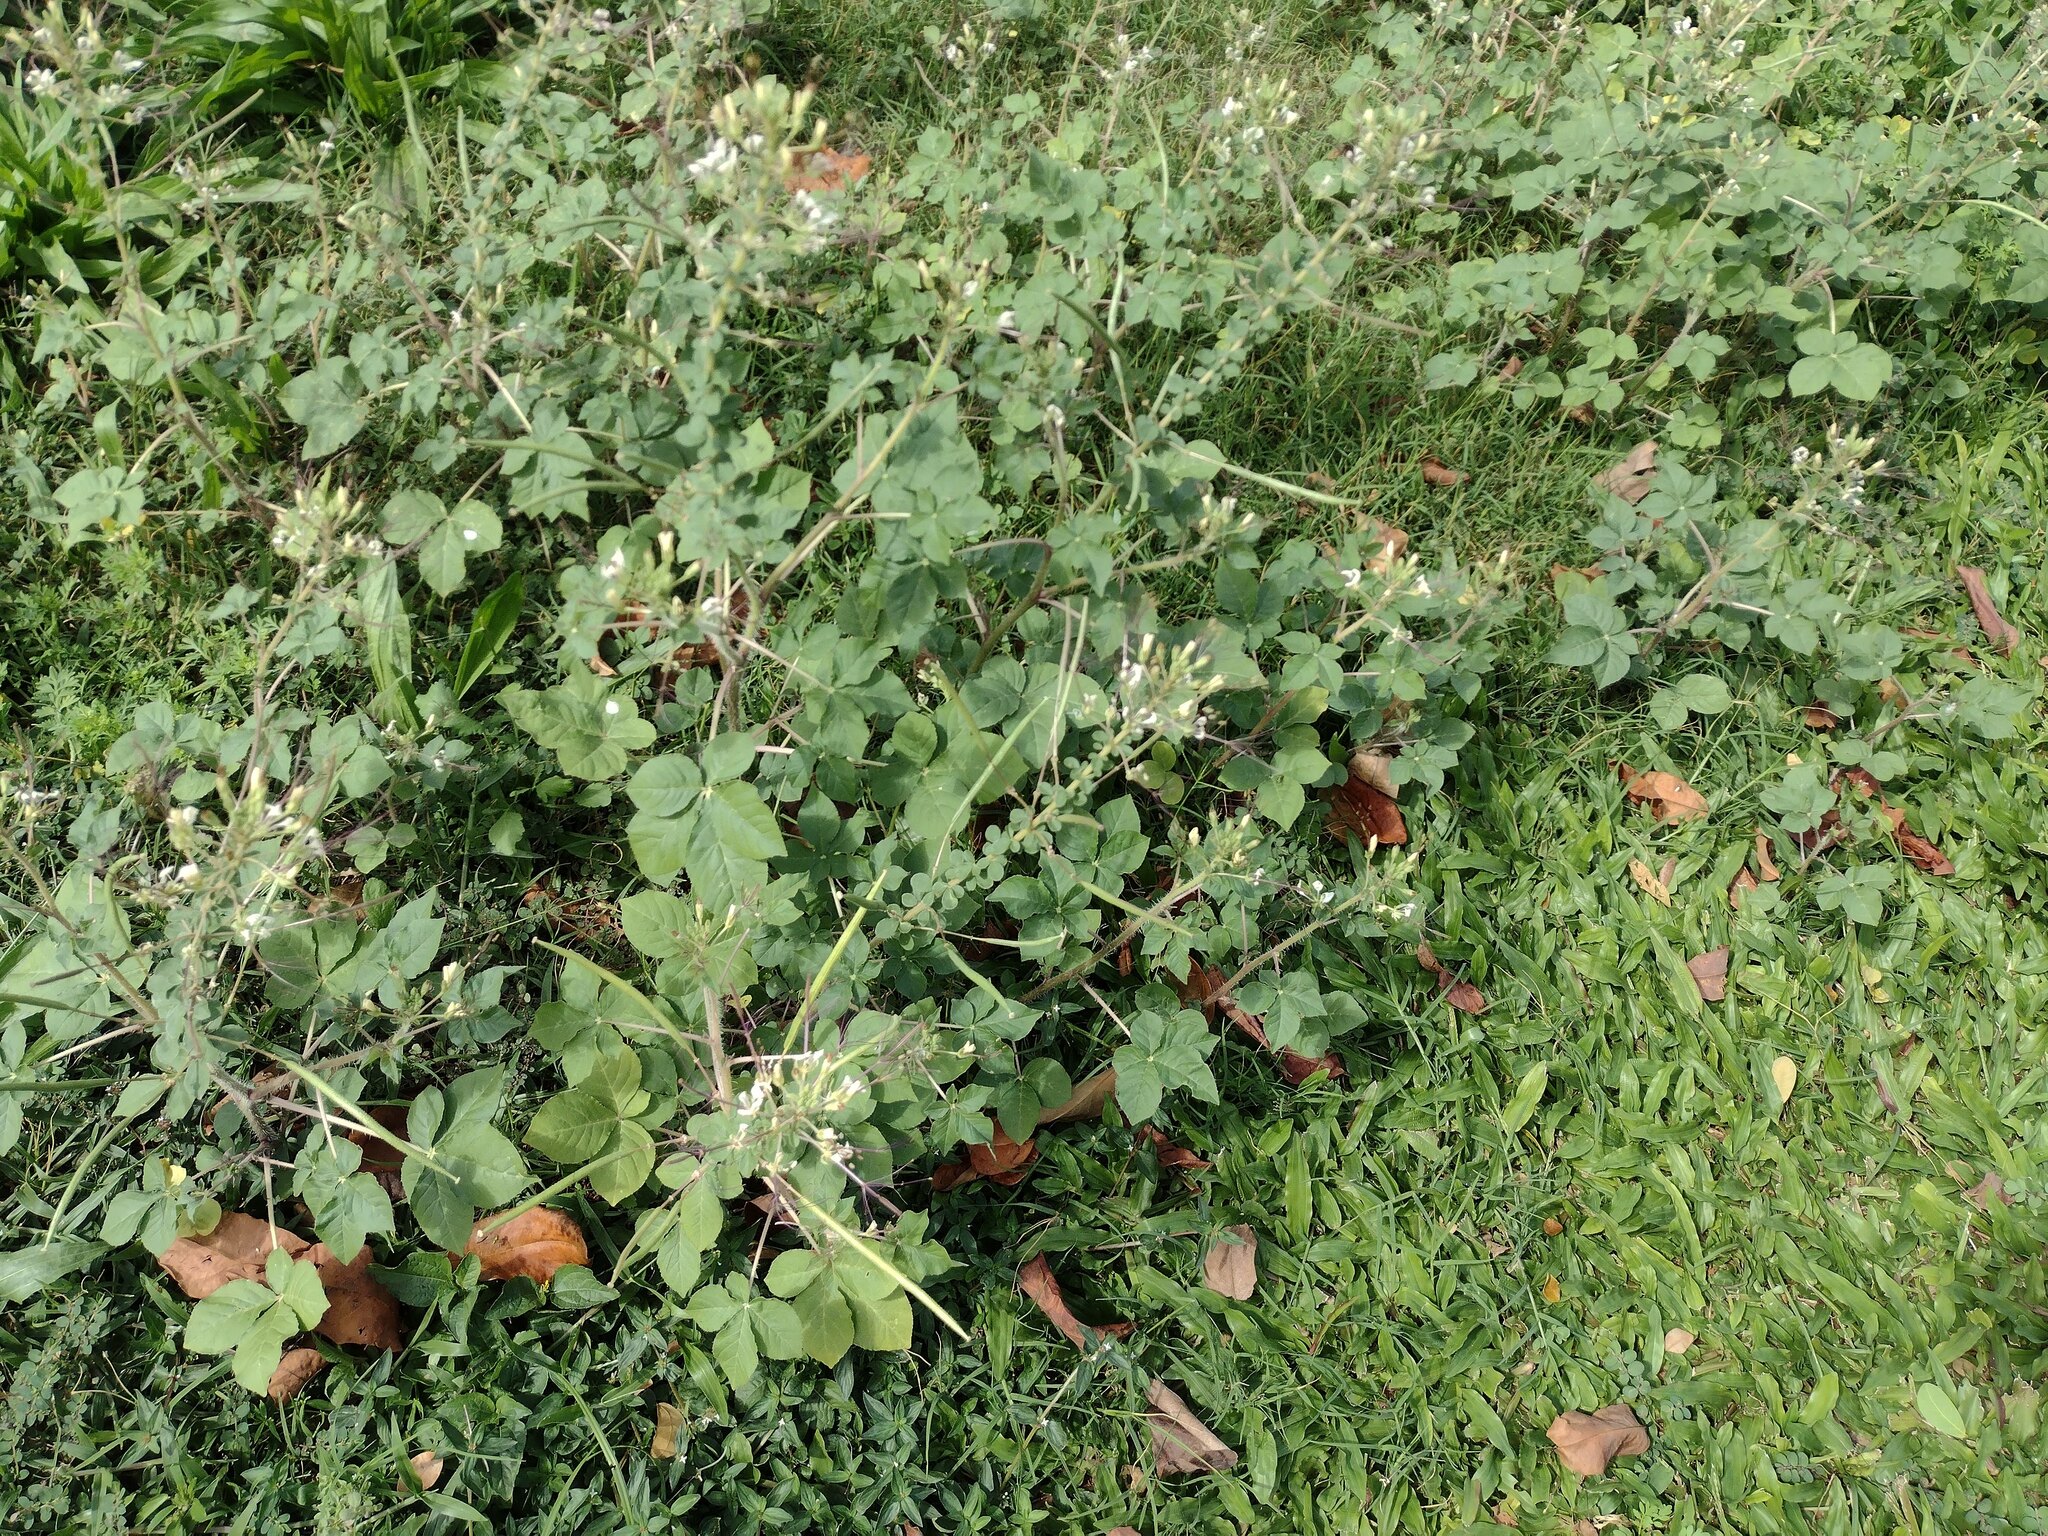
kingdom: Plantae
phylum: Tracheophyta
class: Magnoliopsida
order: Brassicales
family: Cleomaceae
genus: Gynandropsis
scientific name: Gynandropsis gynandra
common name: Spiderwisp
